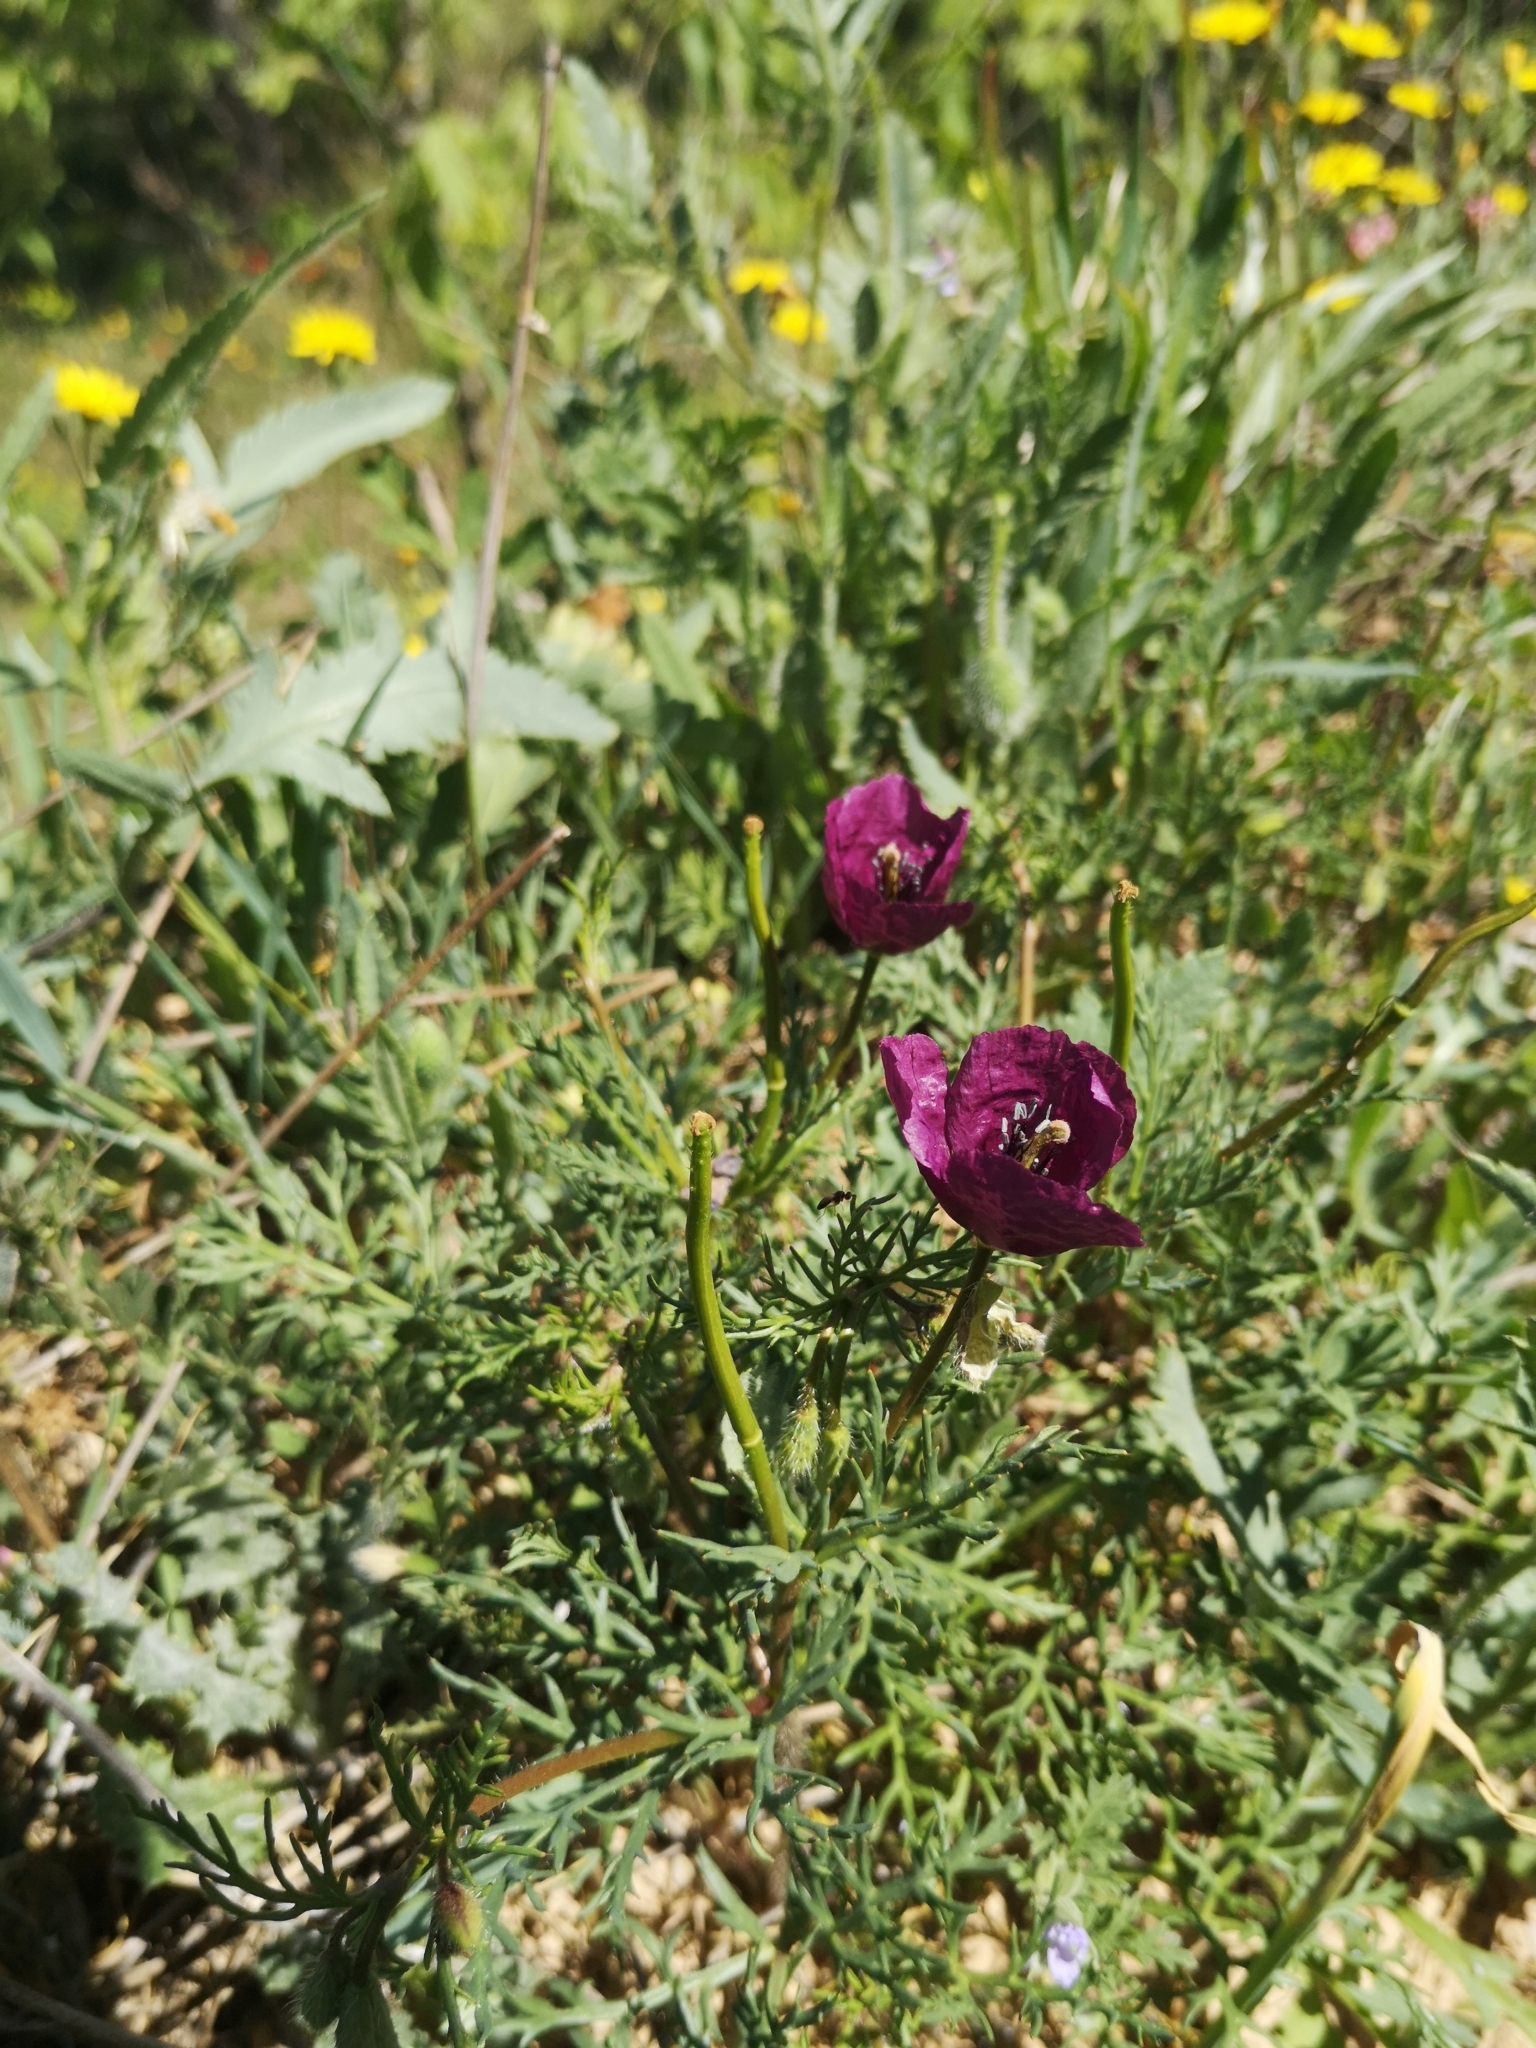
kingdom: Plantae
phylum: Tracheophyta
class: Magnoliopsida
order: Ranunculales
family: Papaveraceae
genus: Roemeria
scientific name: Roemeria hybrida
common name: Violet horned-poppy
